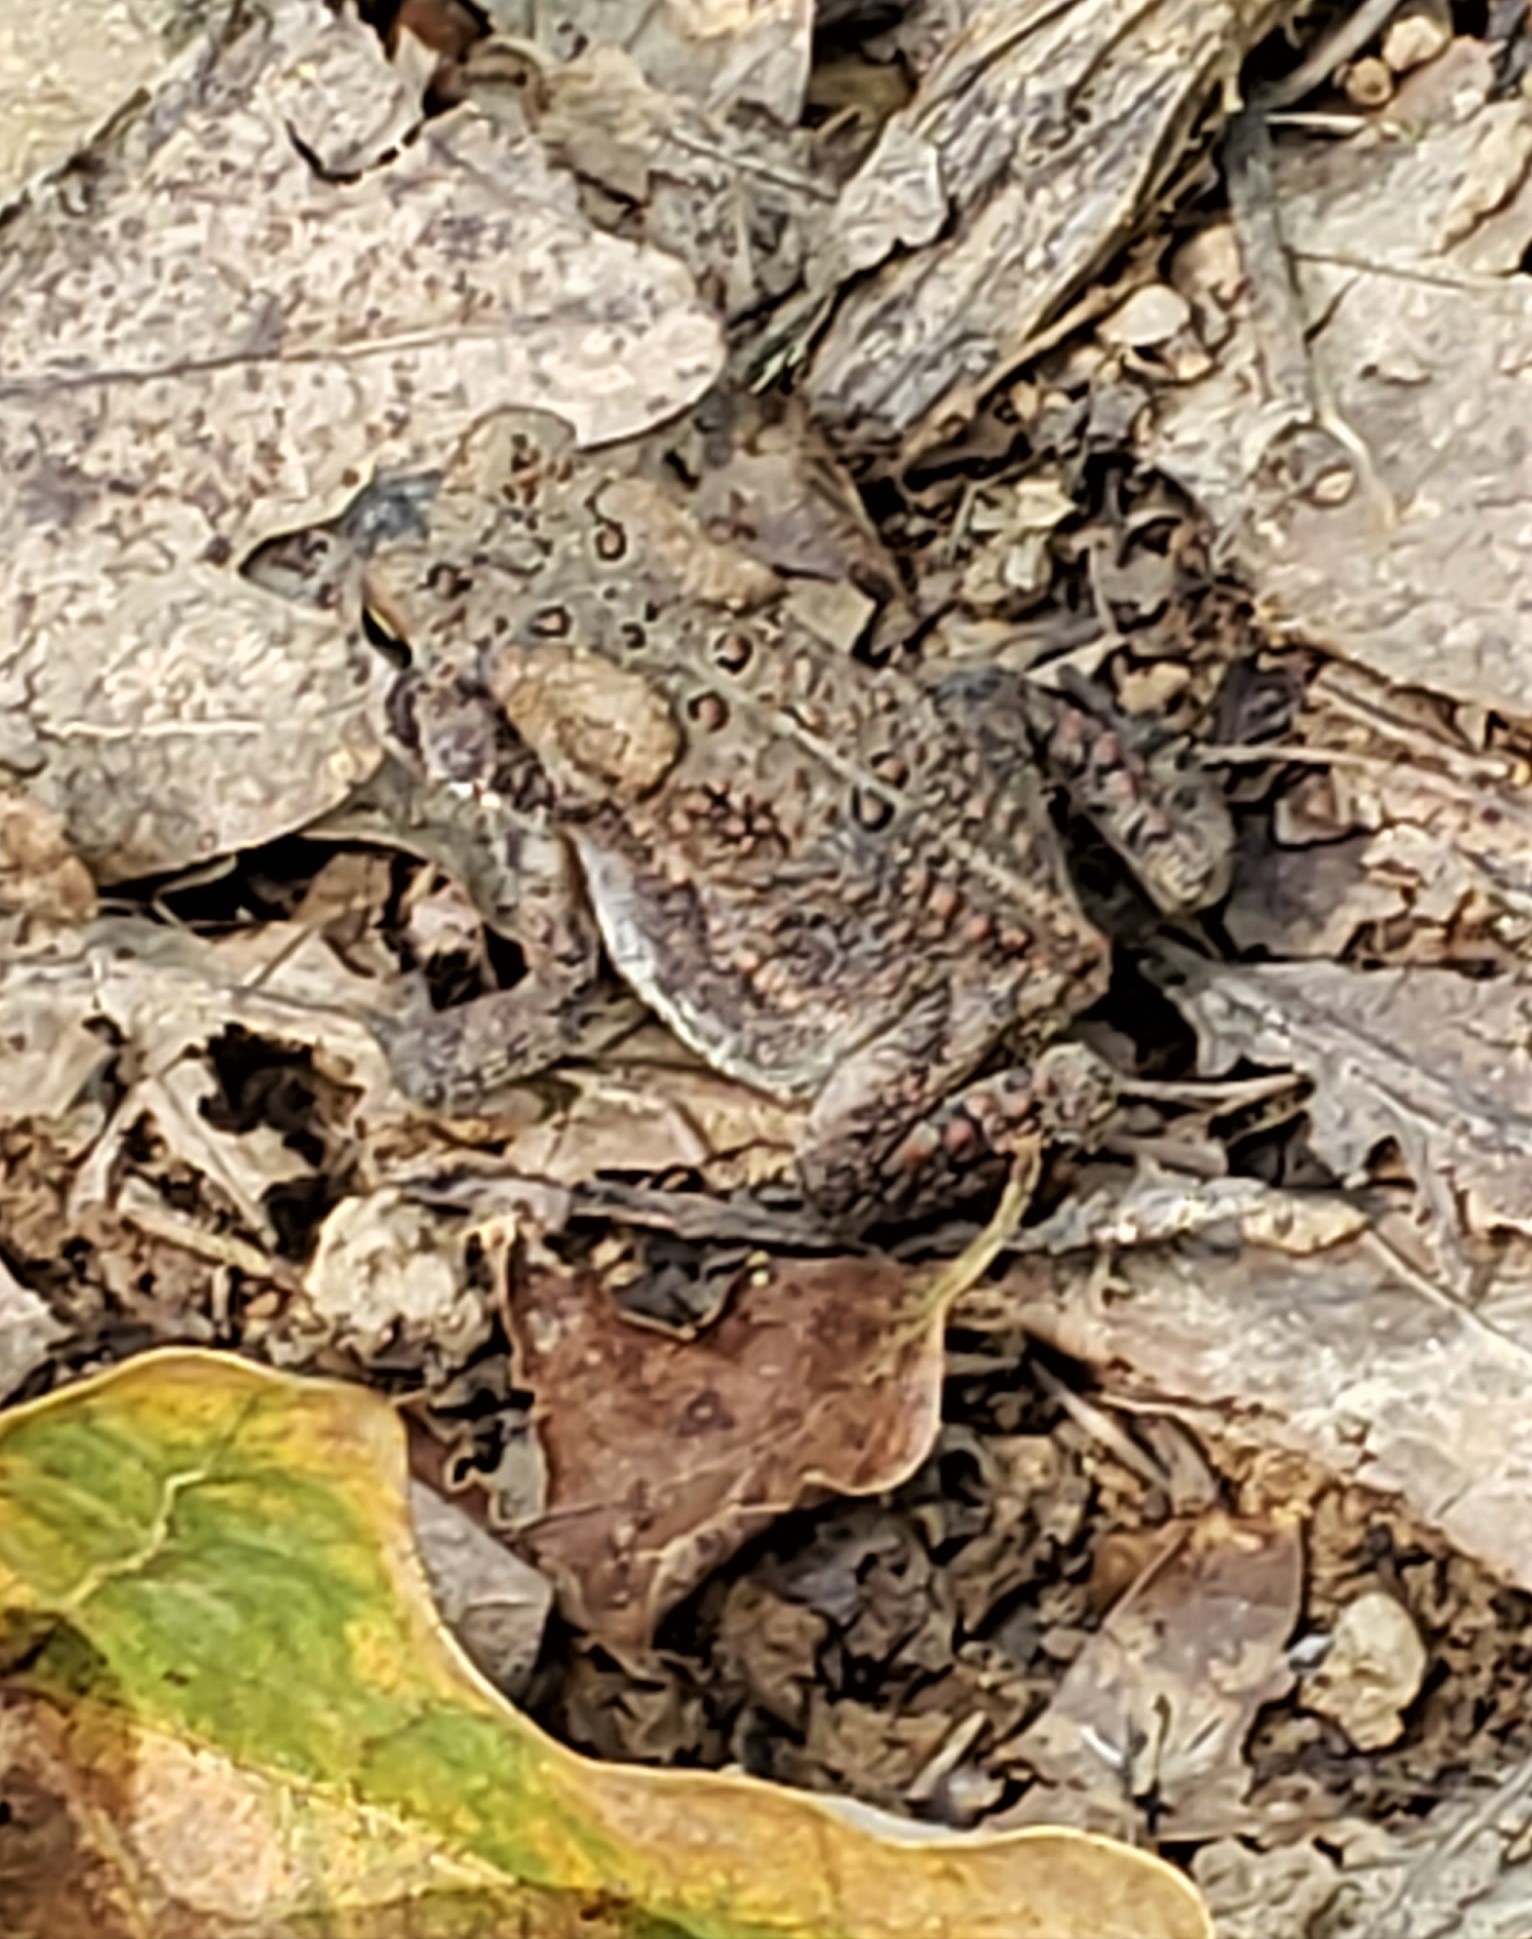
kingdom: Animalia
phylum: Chordata
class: Amphibia
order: Anura
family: Bufonidae
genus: Anaxyrus
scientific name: Anaxyrus americanus
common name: American toad
